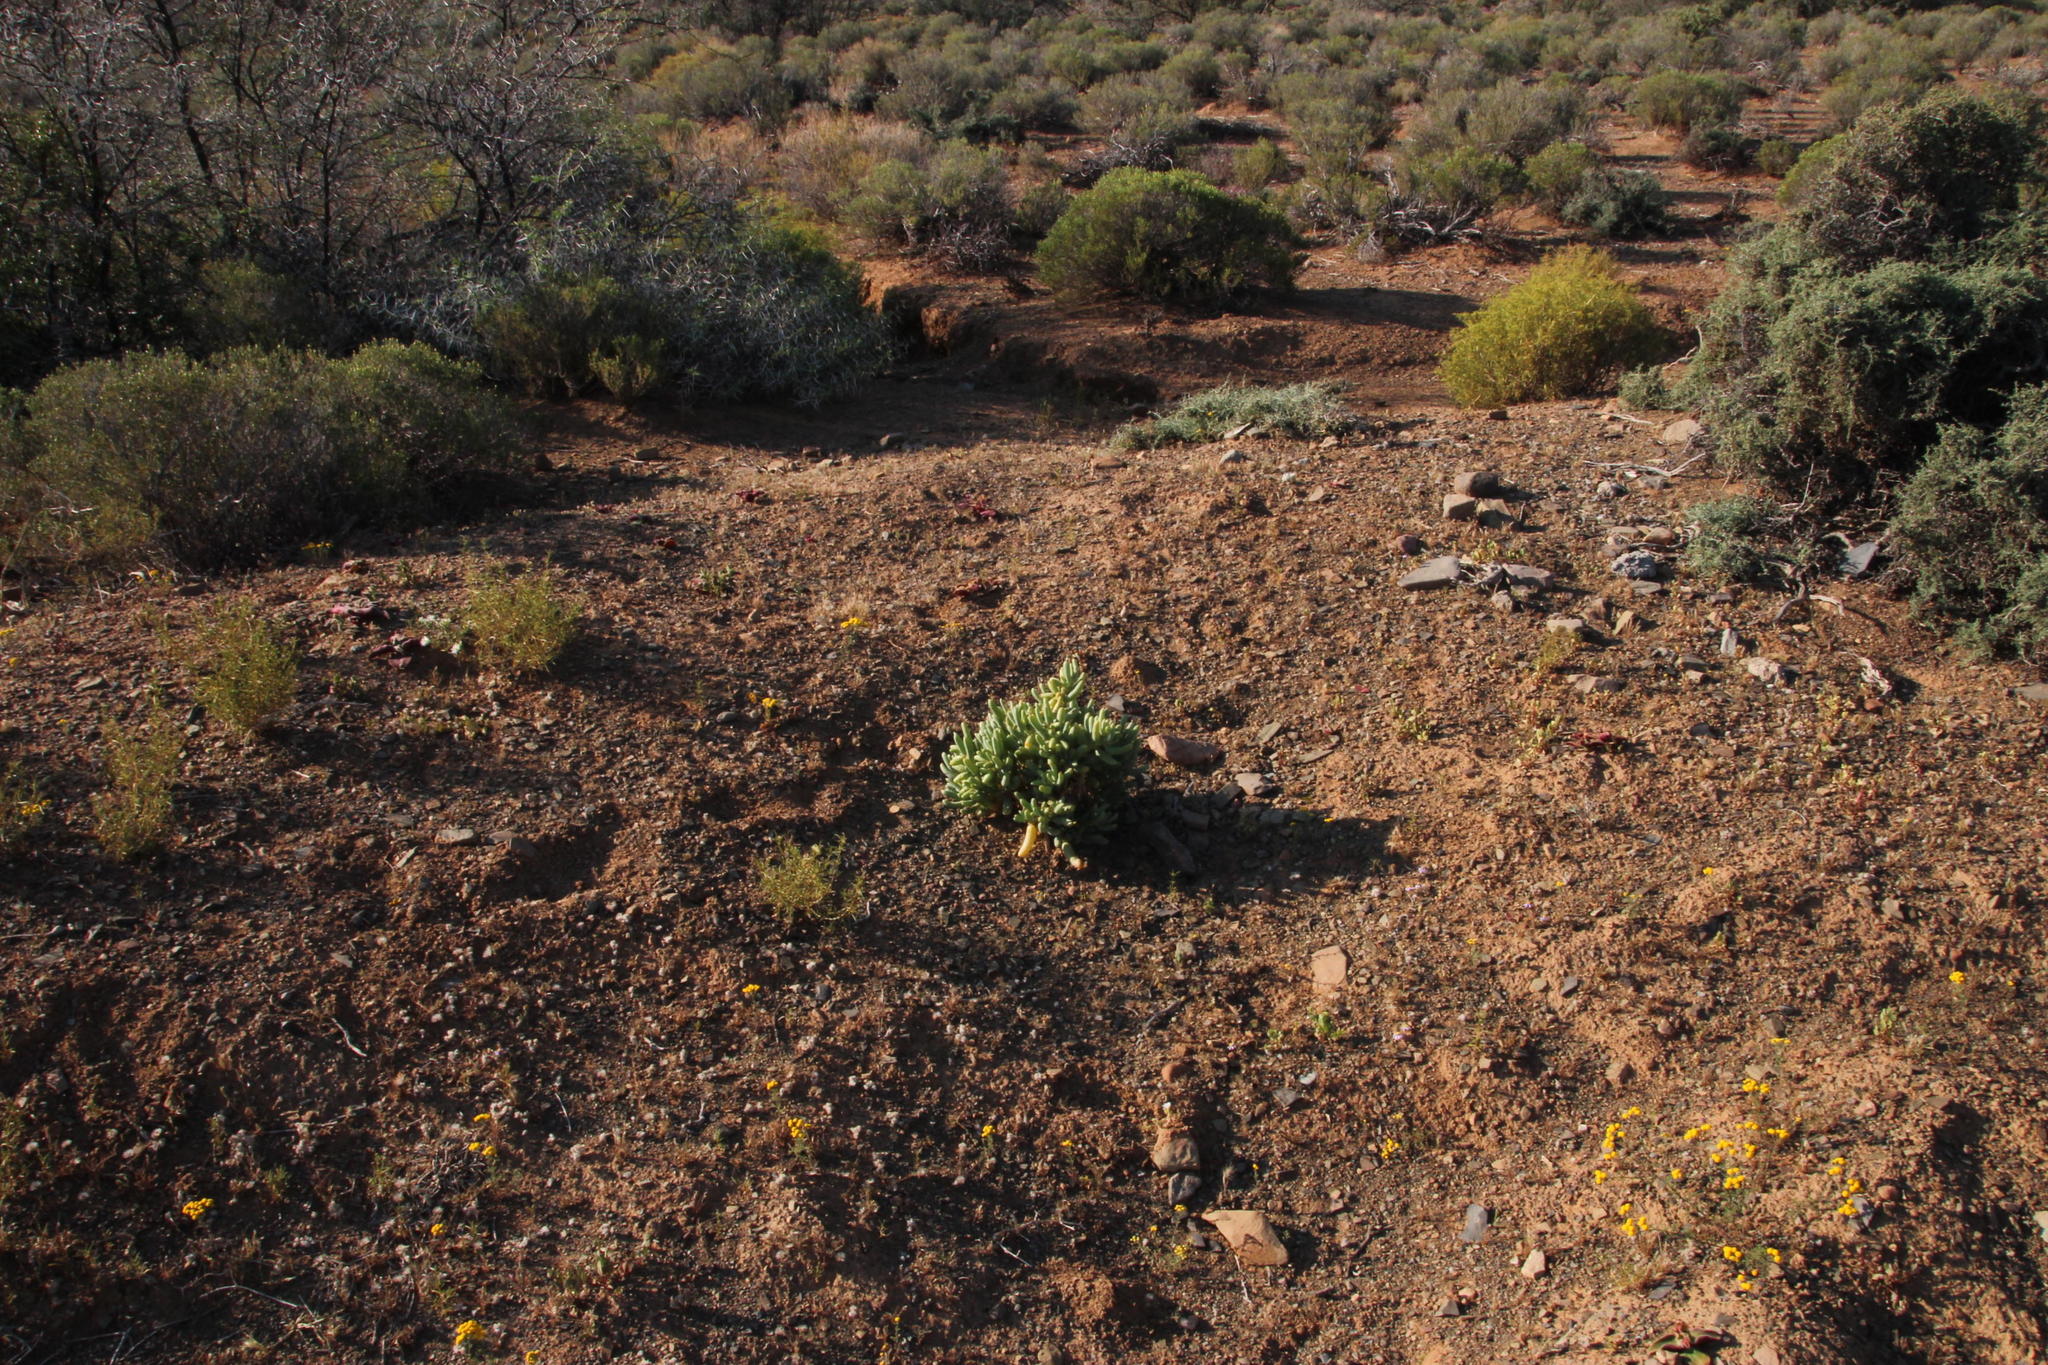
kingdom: Plantae
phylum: Tracheophyta
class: Magnoliopsida
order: Zygophyllales
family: Zygophyllaceae
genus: Augea
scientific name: Augea capensis
